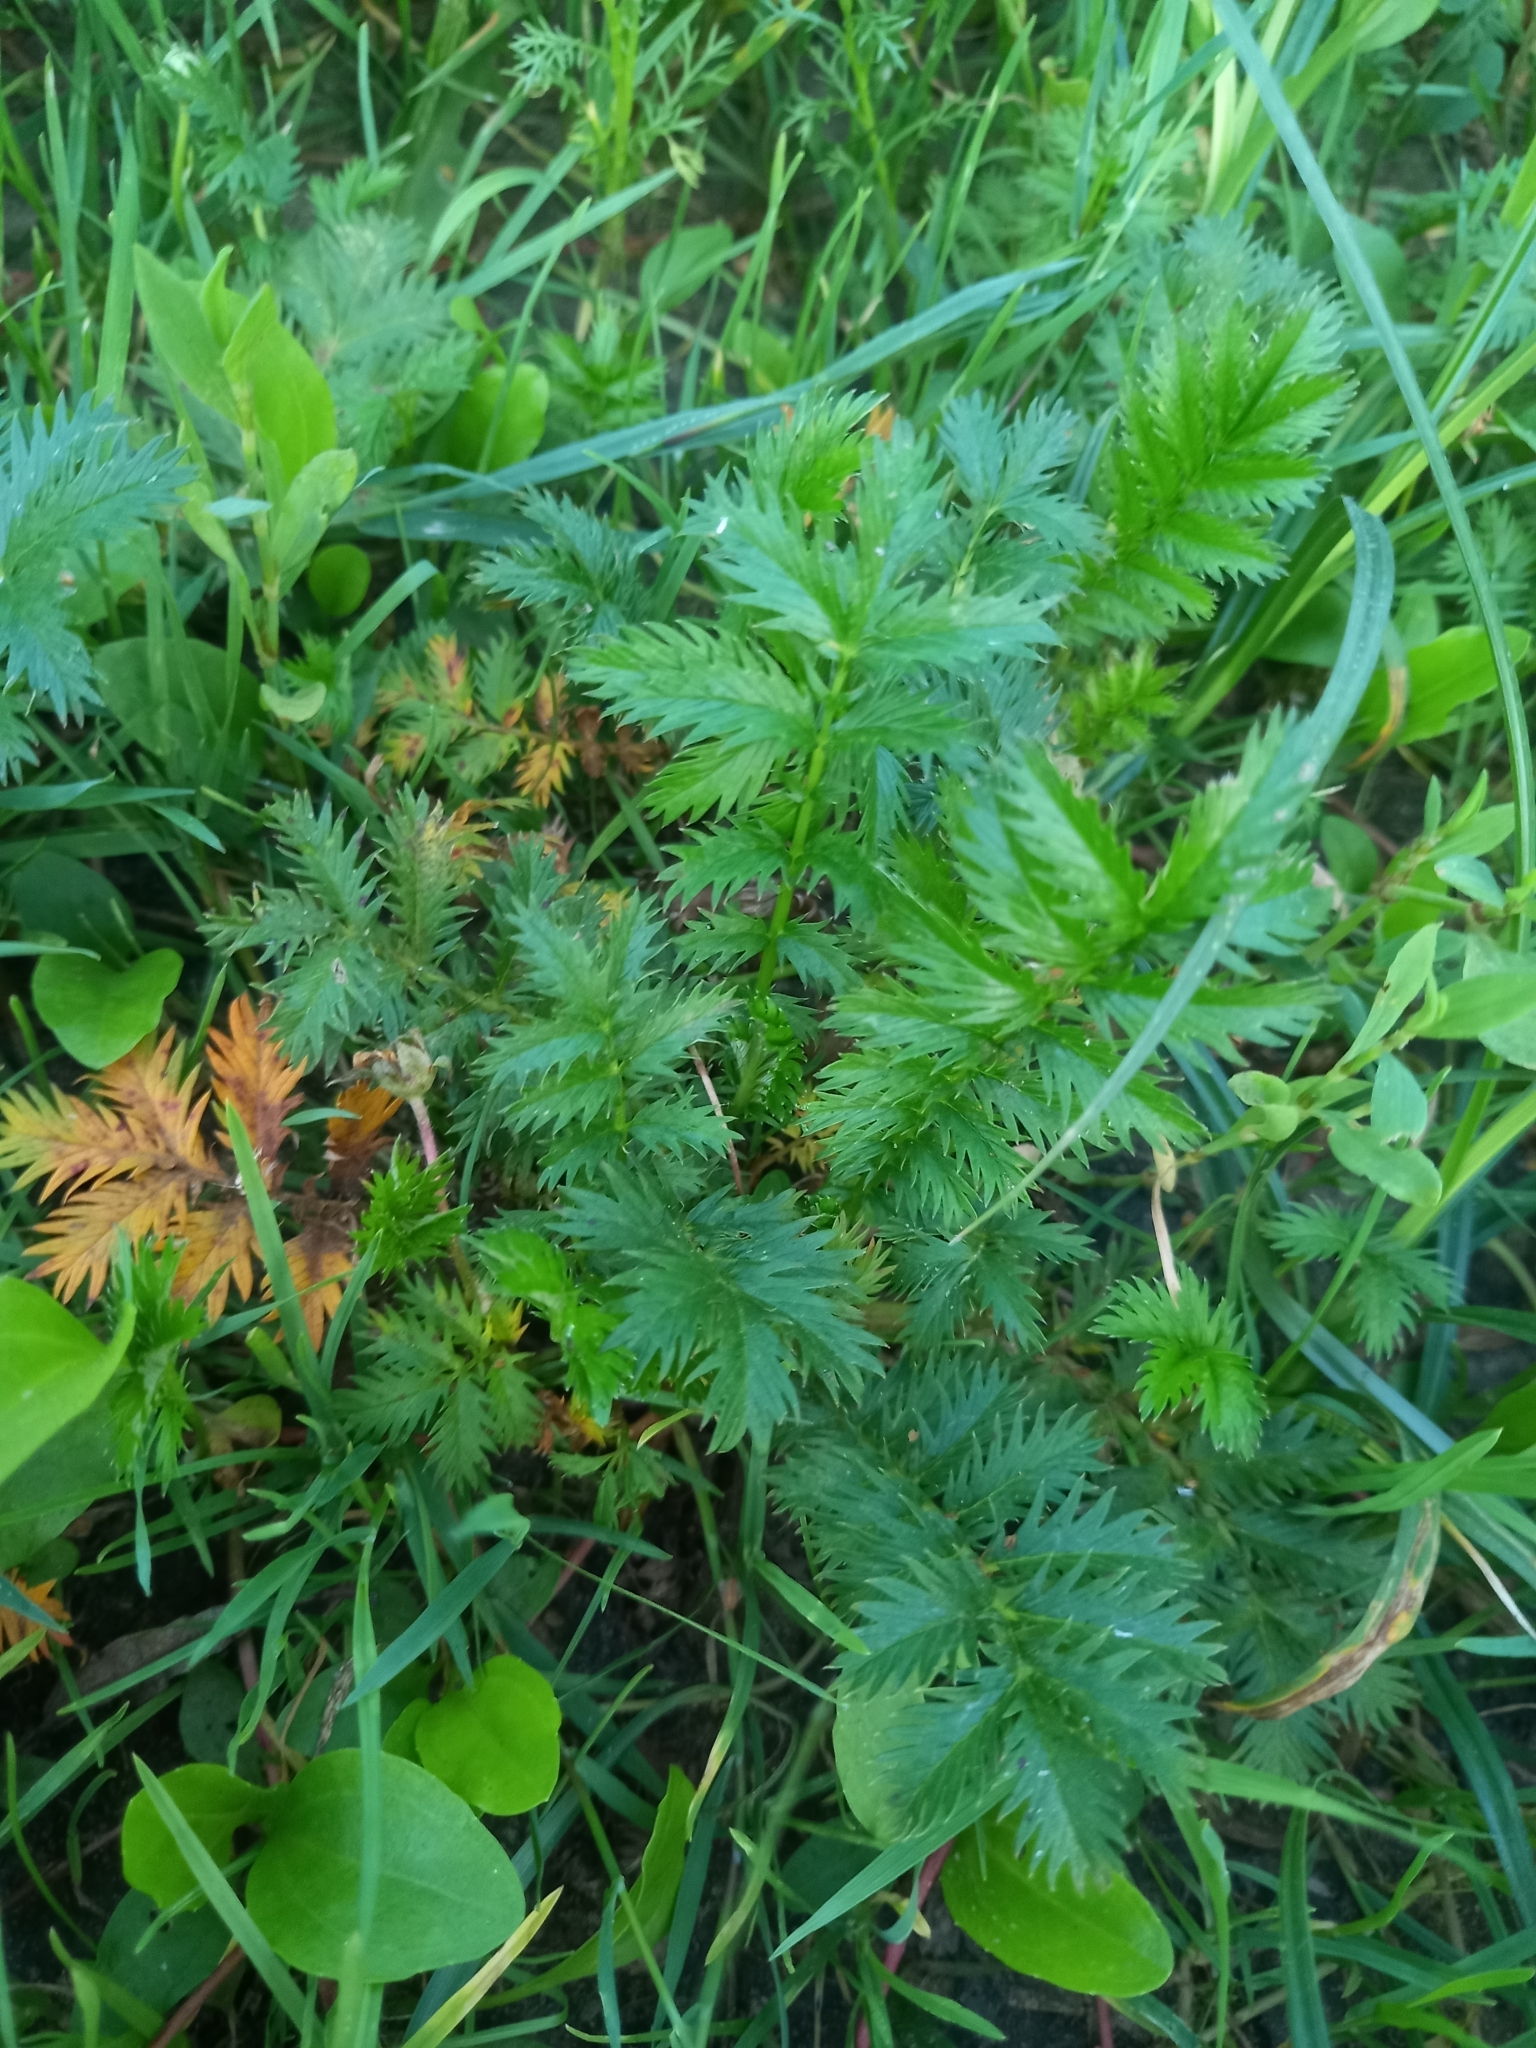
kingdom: Plantae
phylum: Tracheophyta
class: Magnoliopsida
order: Rosales
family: Rosaceae
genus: Argentina
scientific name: Argentina anserina
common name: Common silverweed
